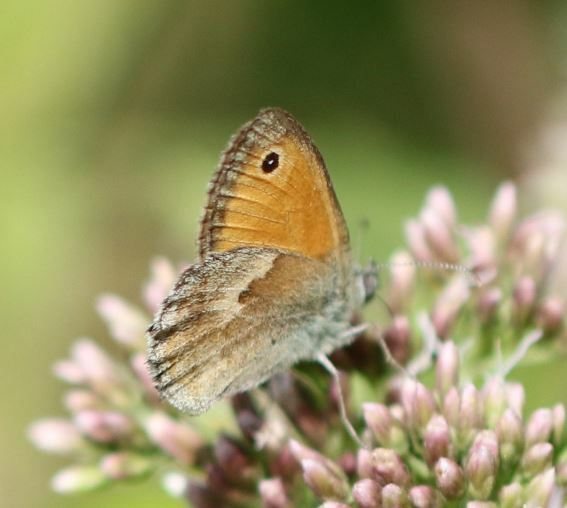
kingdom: Animalia
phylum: Arthropoda
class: Insecta
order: Lepidoptera
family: Nymphalidae
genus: Coenonympha
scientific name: Coenonympha pamphilus
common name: Small heath
